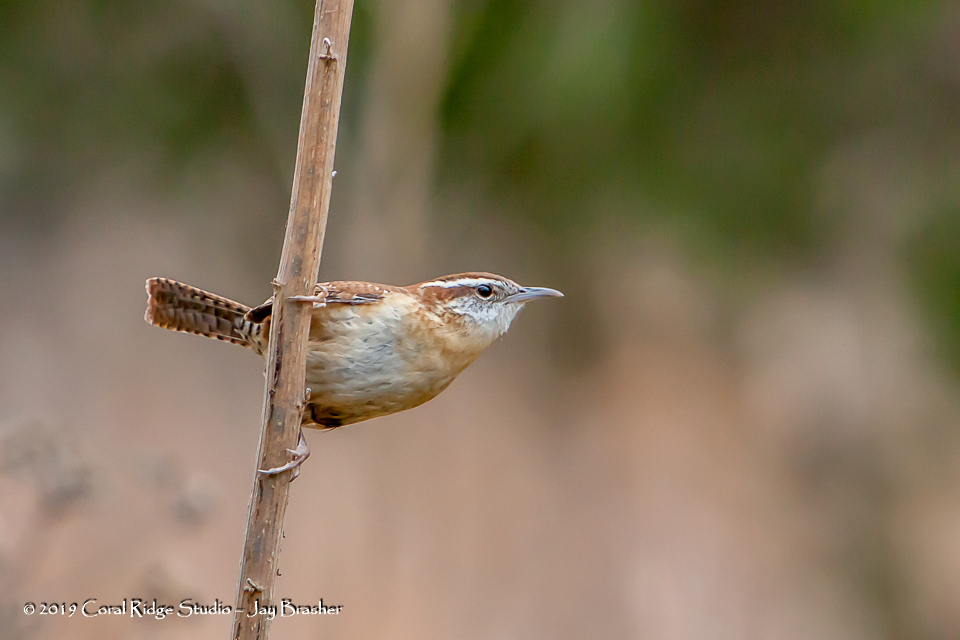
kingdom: Animalia
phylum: Chordata
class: Aves
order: Passeriformes
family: Troglodytidae
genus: Thryothorus
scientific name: Thryothorus ludovicianus
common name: Carolina wren
